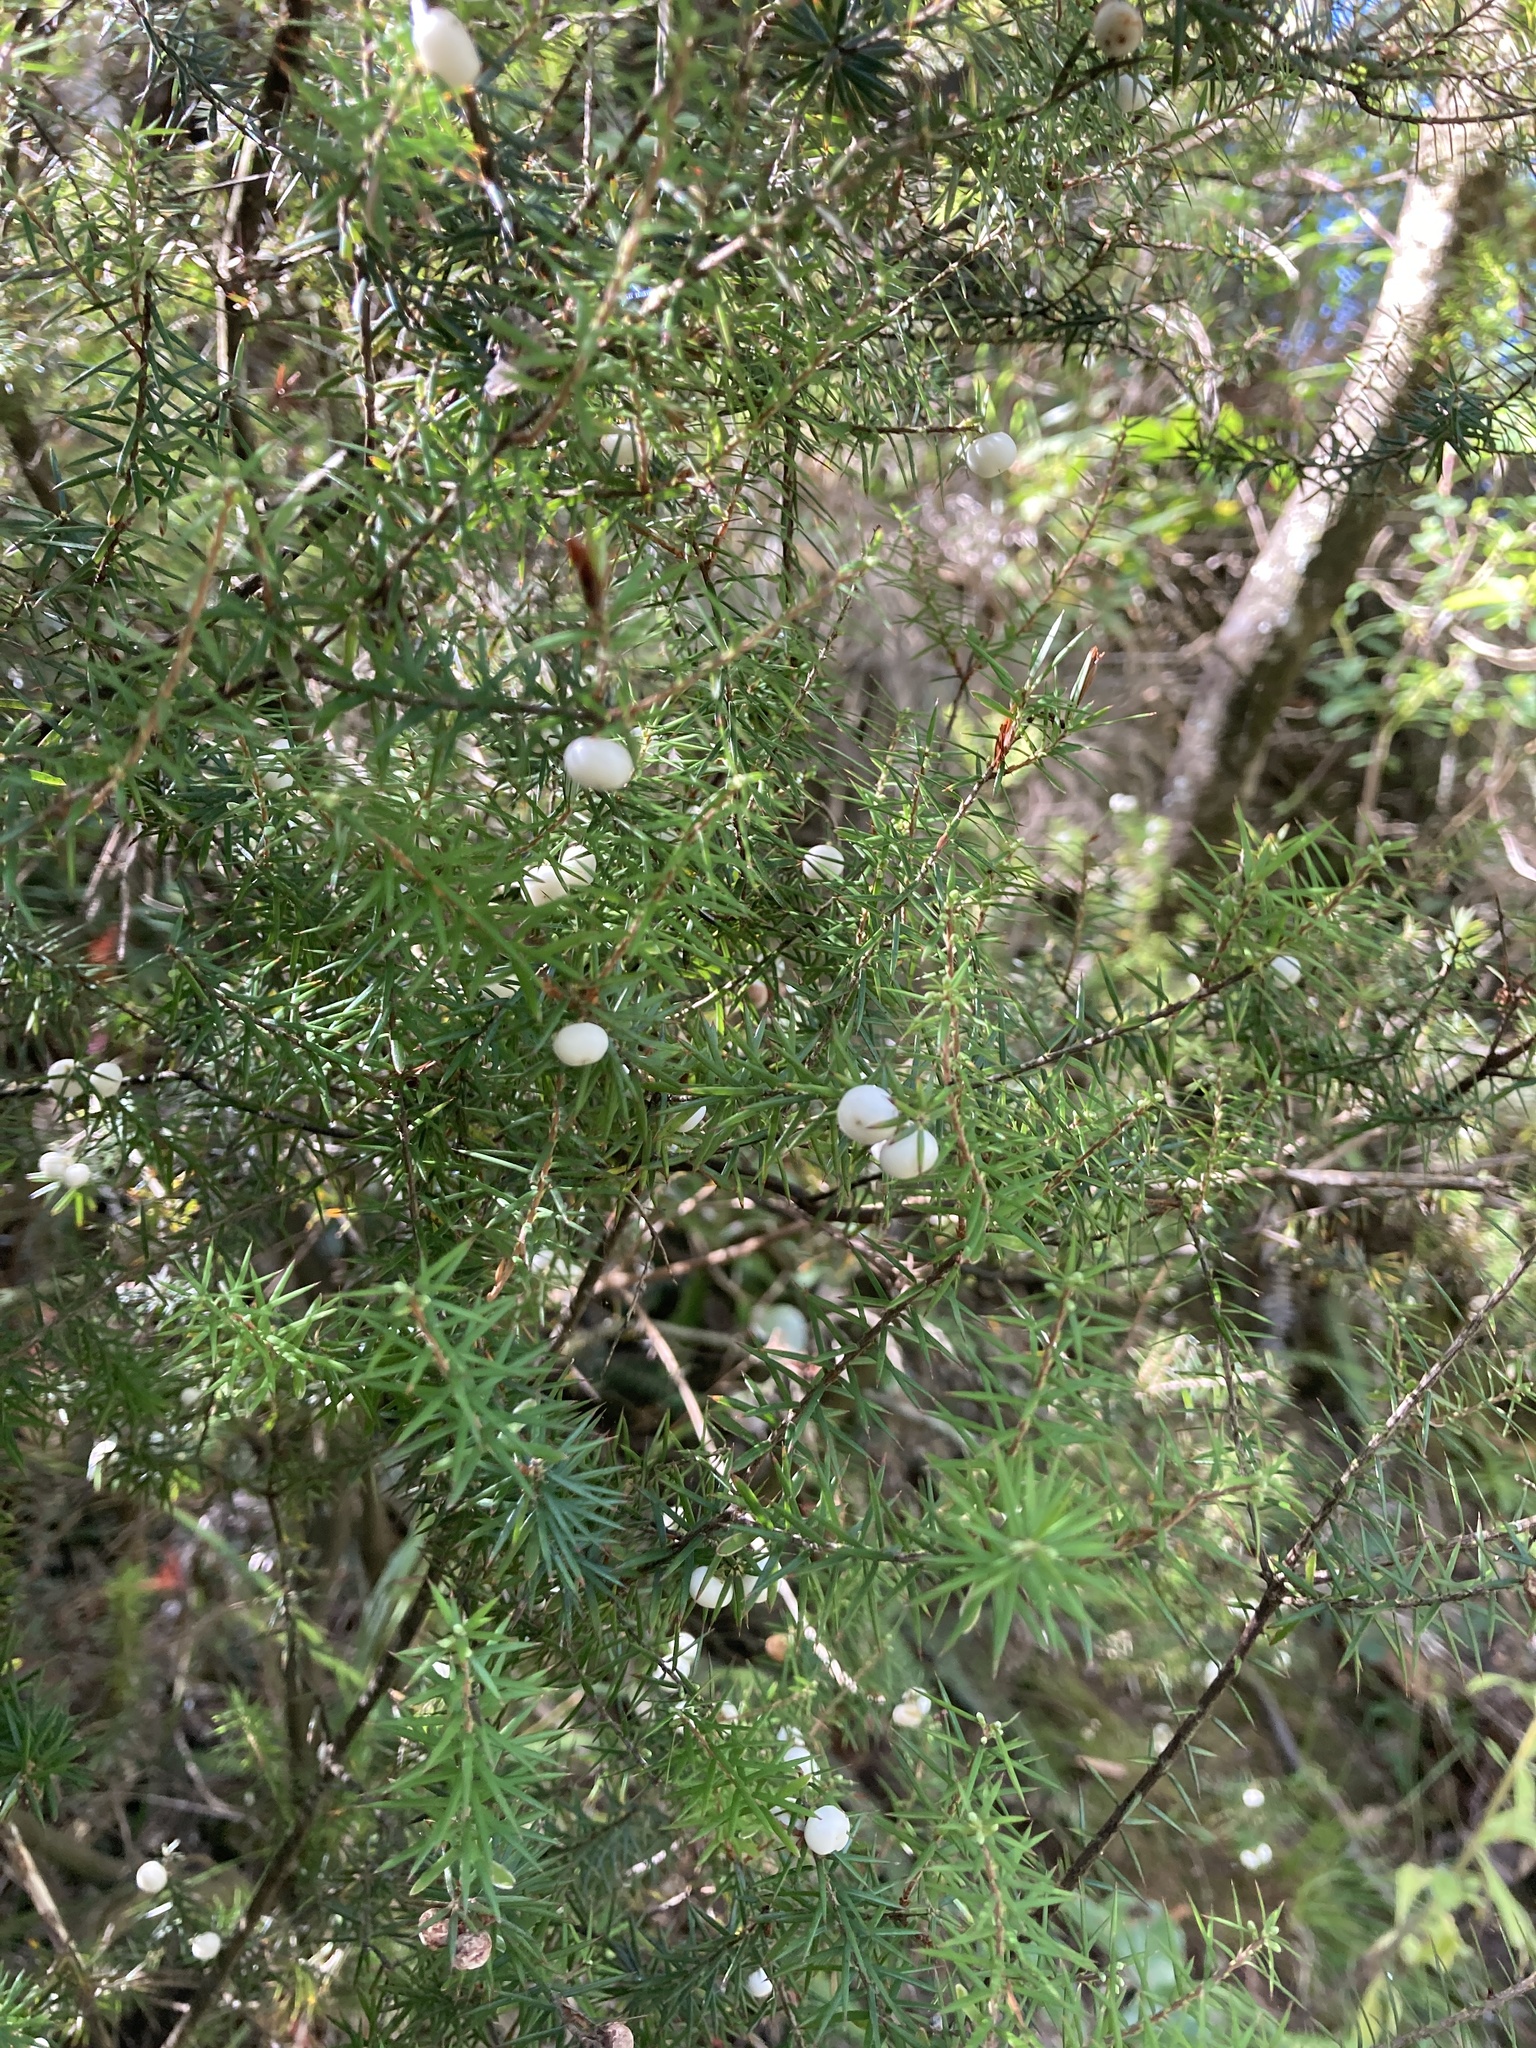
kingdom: Plantae
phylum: Tracheophyta
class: Magnoliopsida
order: Ericales
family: Ericaceae
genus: Leptecophylla
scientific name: Leptecophylla juniperina
